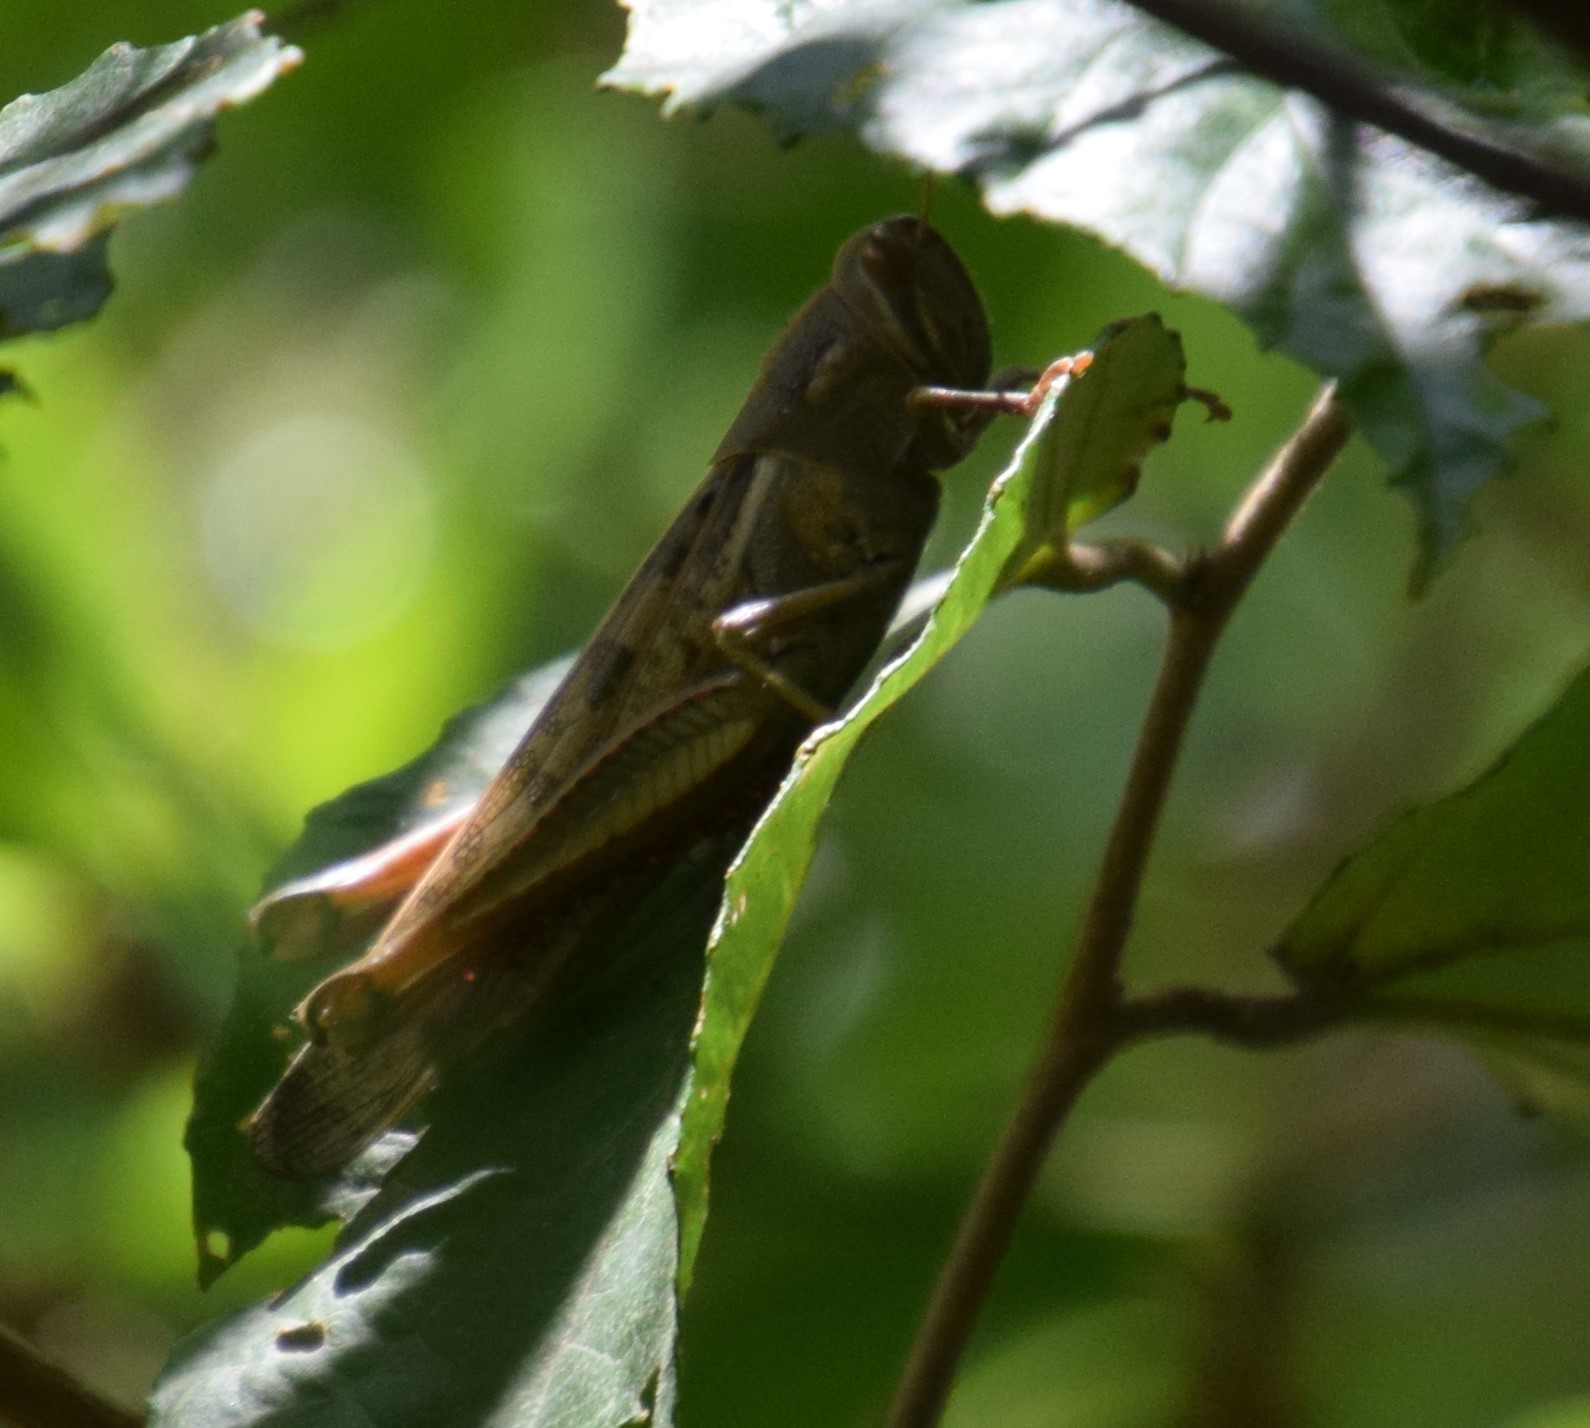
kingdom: Animalia
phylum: Arthropoda
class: Insecta
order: Orthoptera
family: Acrididae
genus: Austracris
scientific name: Austracris proxima
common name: Confusing spur-throated locust
